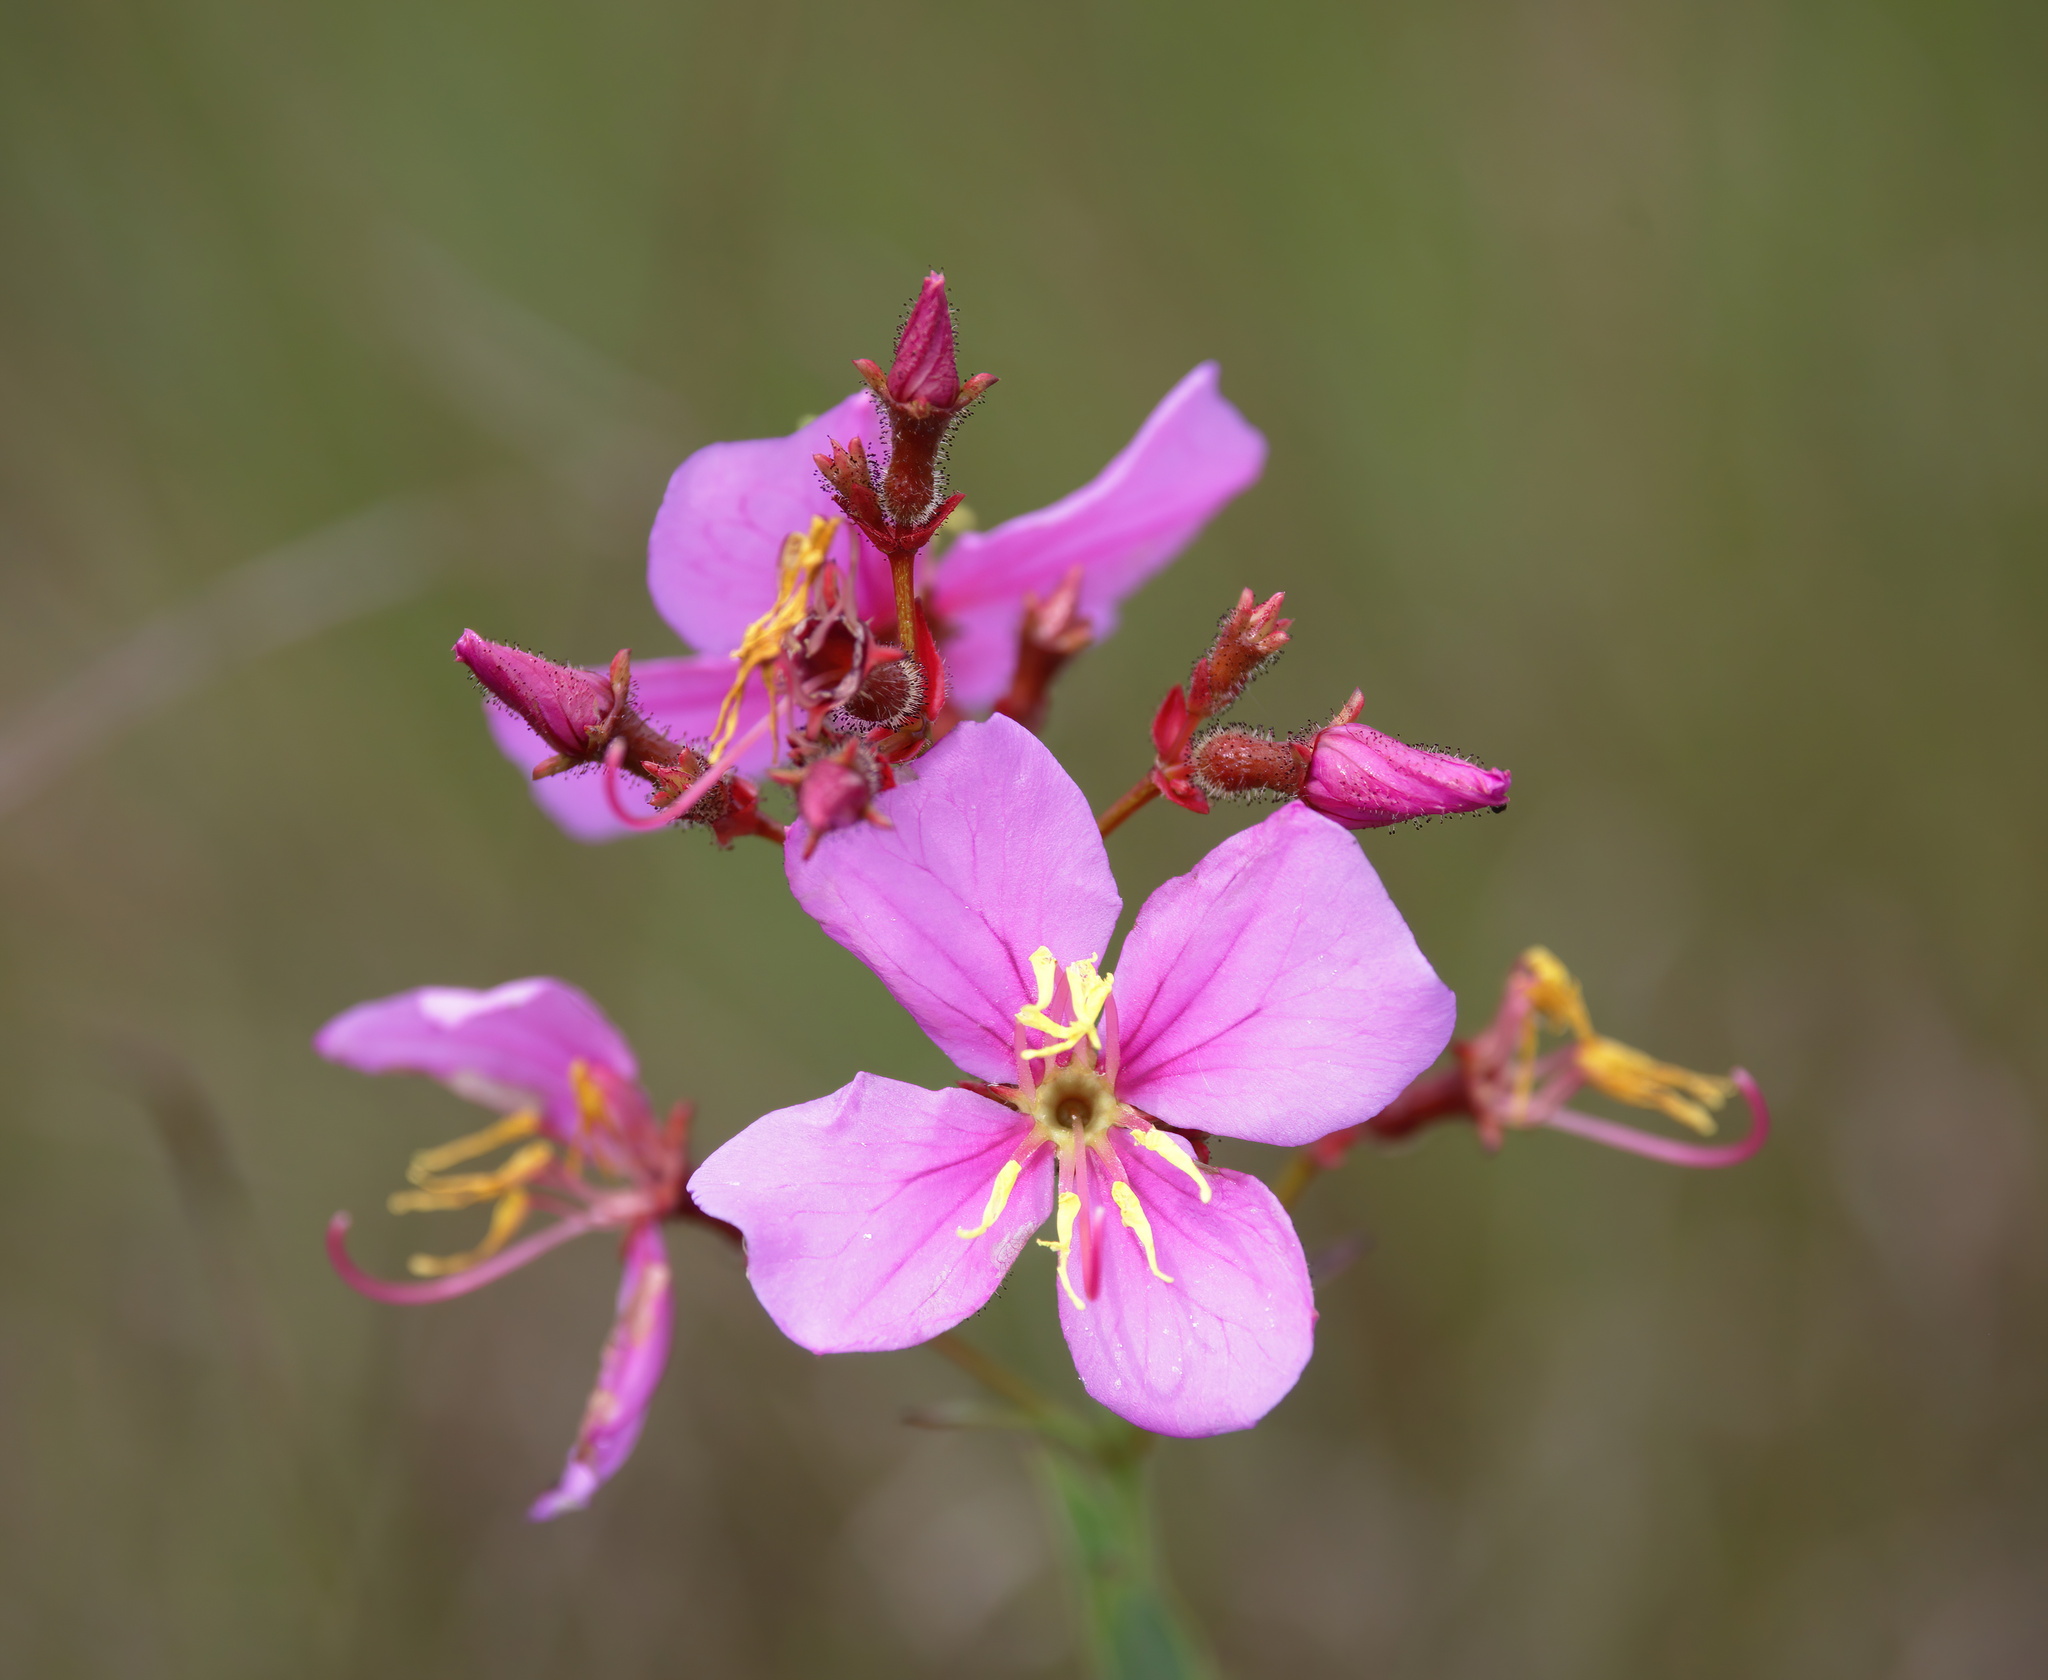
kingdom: Plantae
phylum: Tracheophyta
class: Magnoliopsida
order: Myrtales
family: Melastomataceae
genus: Rhexia
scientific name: Rhexia alifanus
